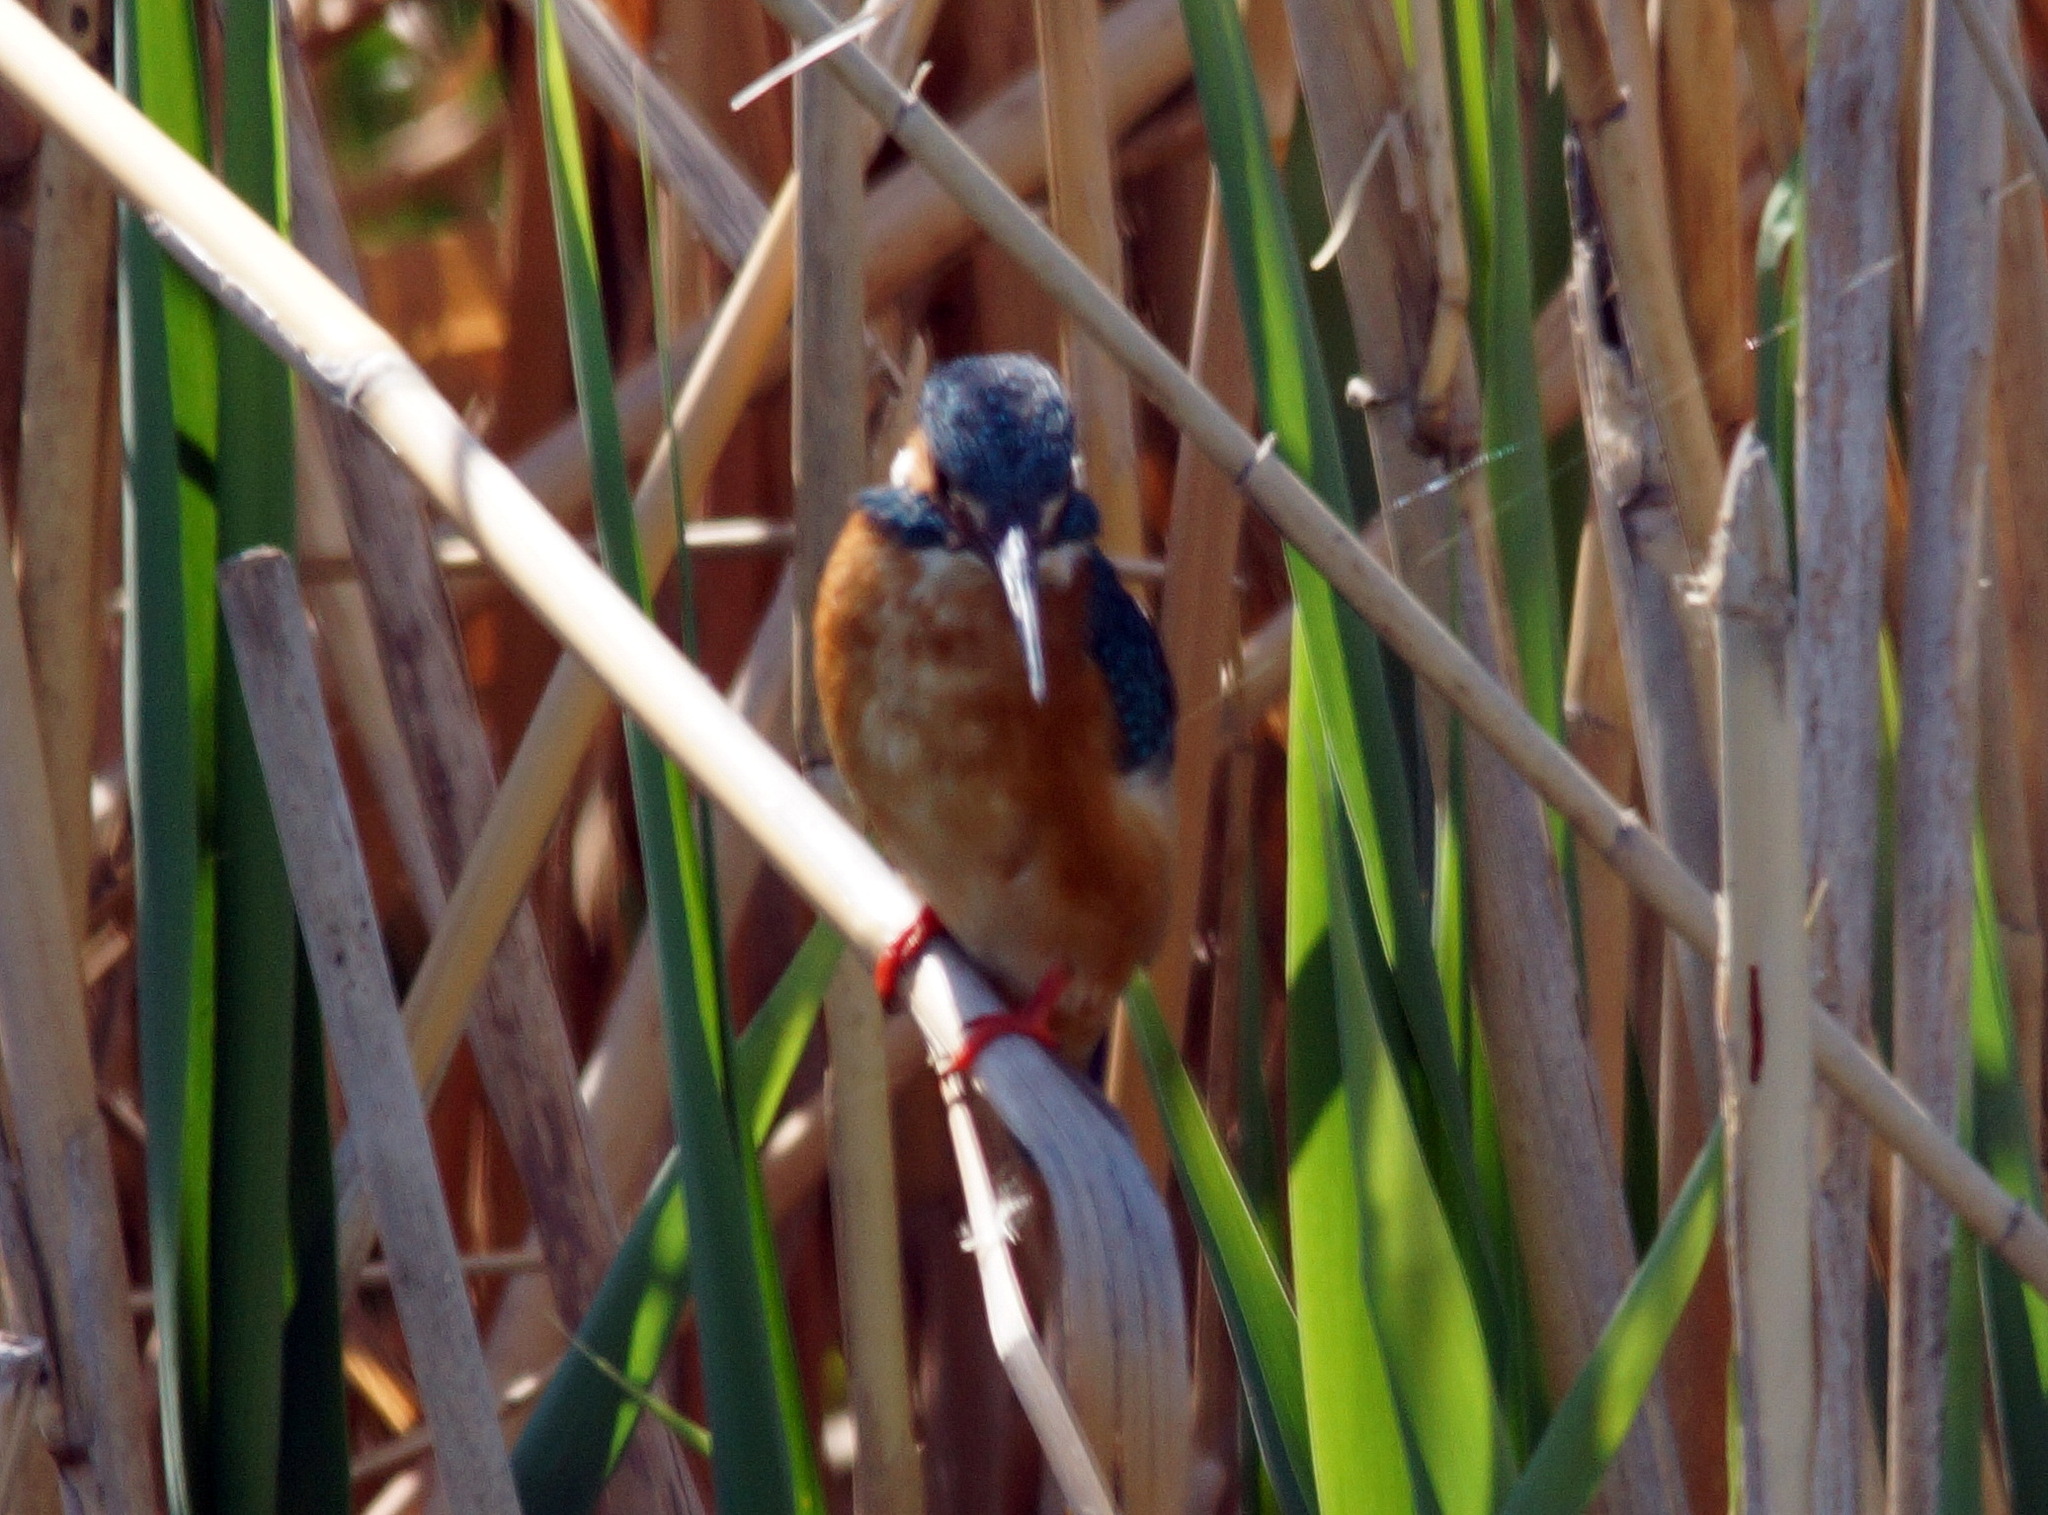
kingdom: Animalia
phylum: Chordata
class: Aves
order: Coraciiformes
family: Alcedinidae
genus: Alcedo
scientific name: Alcedo atthis
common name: Common kingfisher
